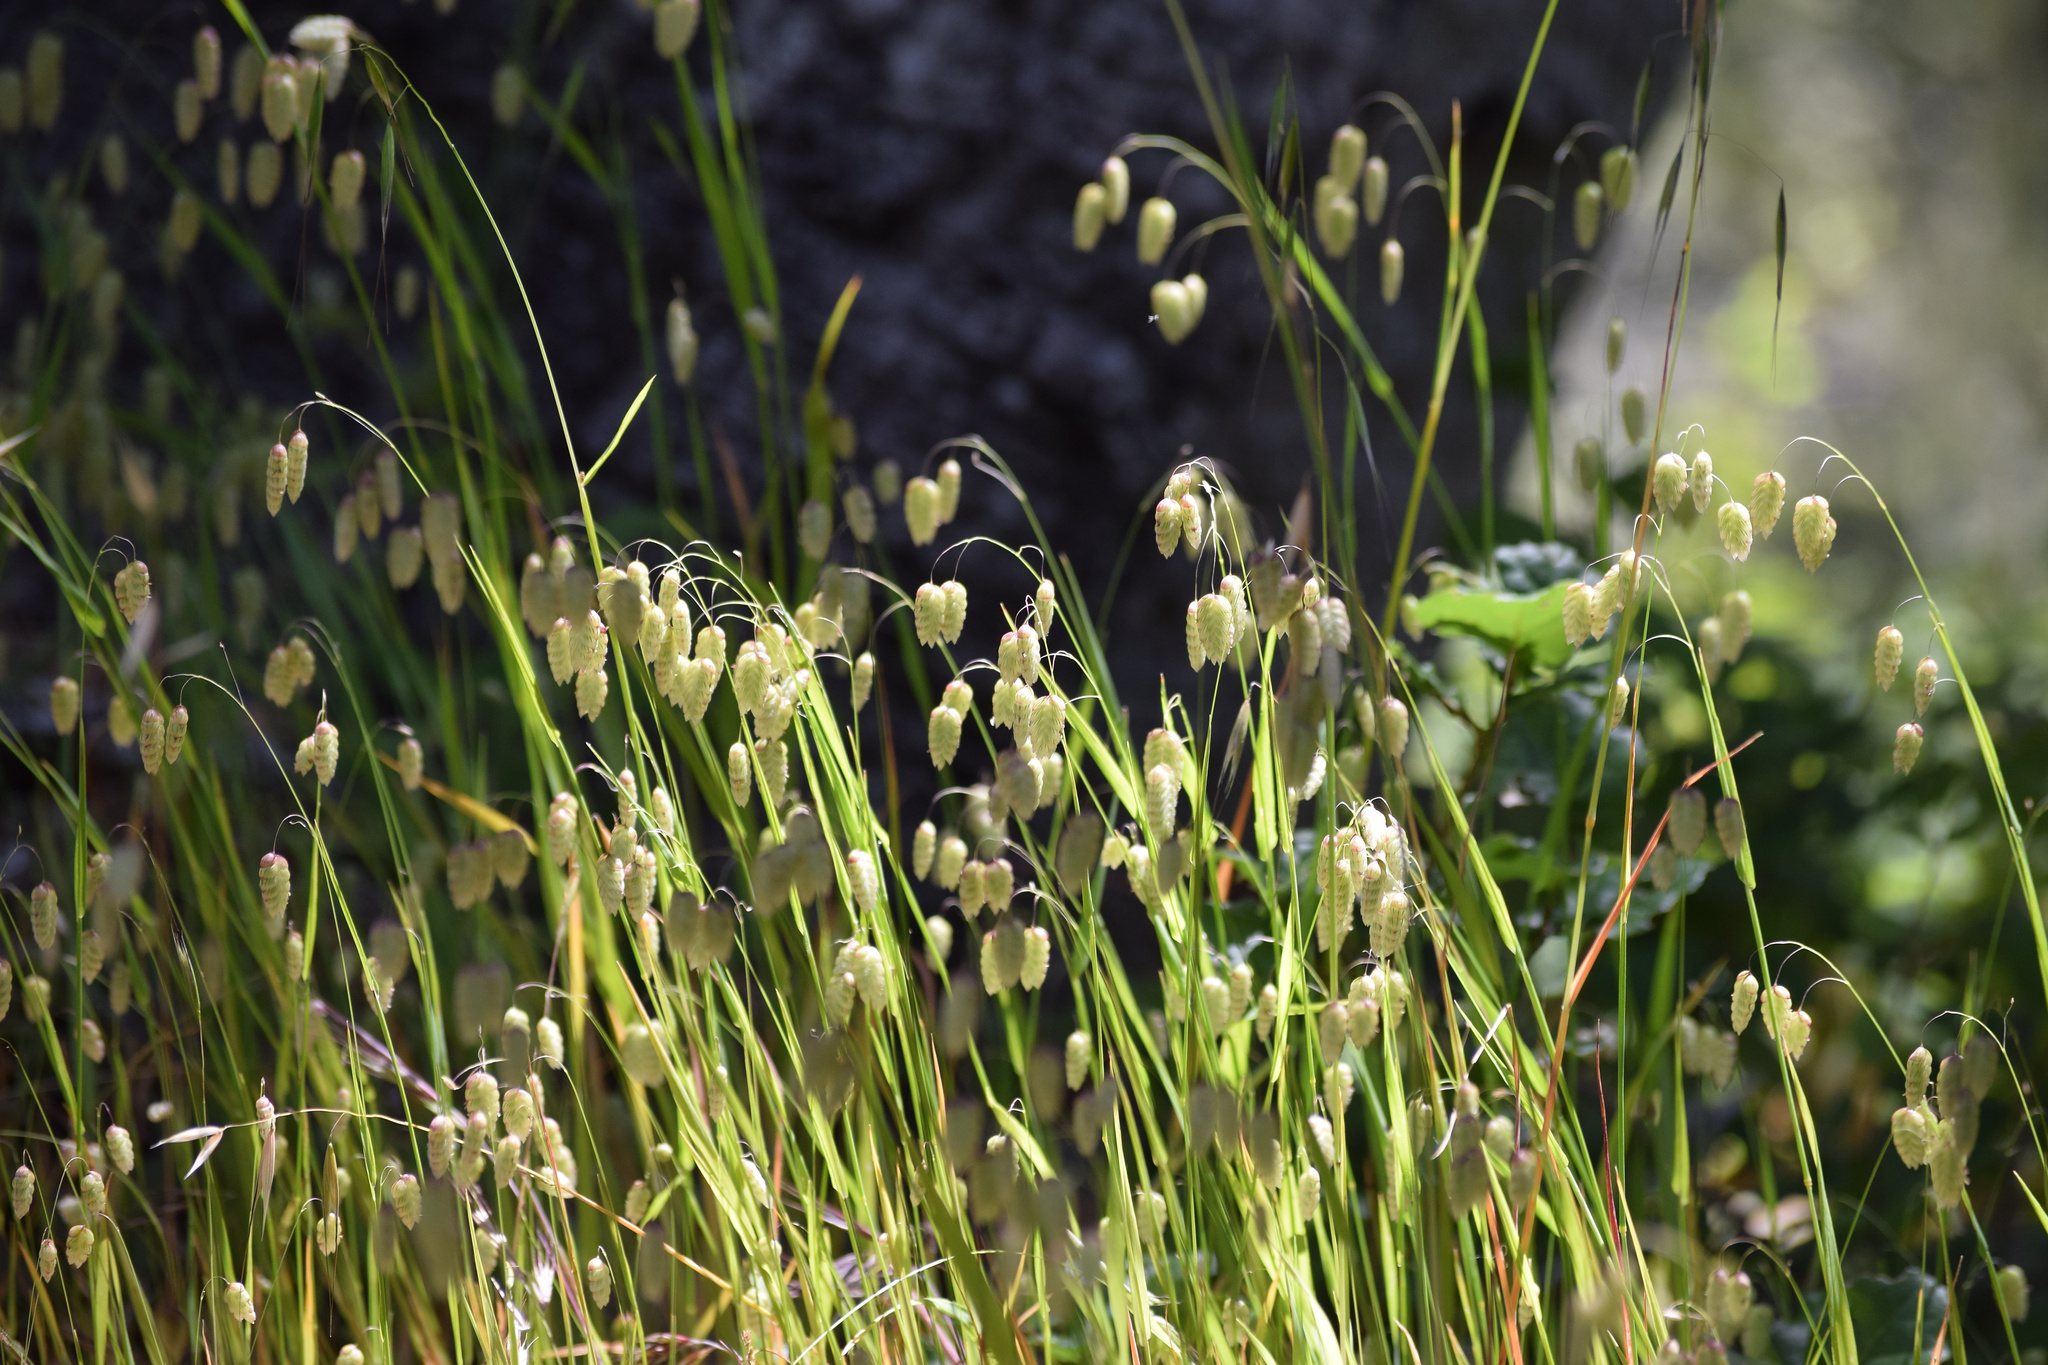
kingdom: Plantae
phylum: Tracheophyta
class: Liliopsida
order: Poales
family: Poaceae
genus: Briza
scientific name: Briza maxima
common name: Big quakinggrass
